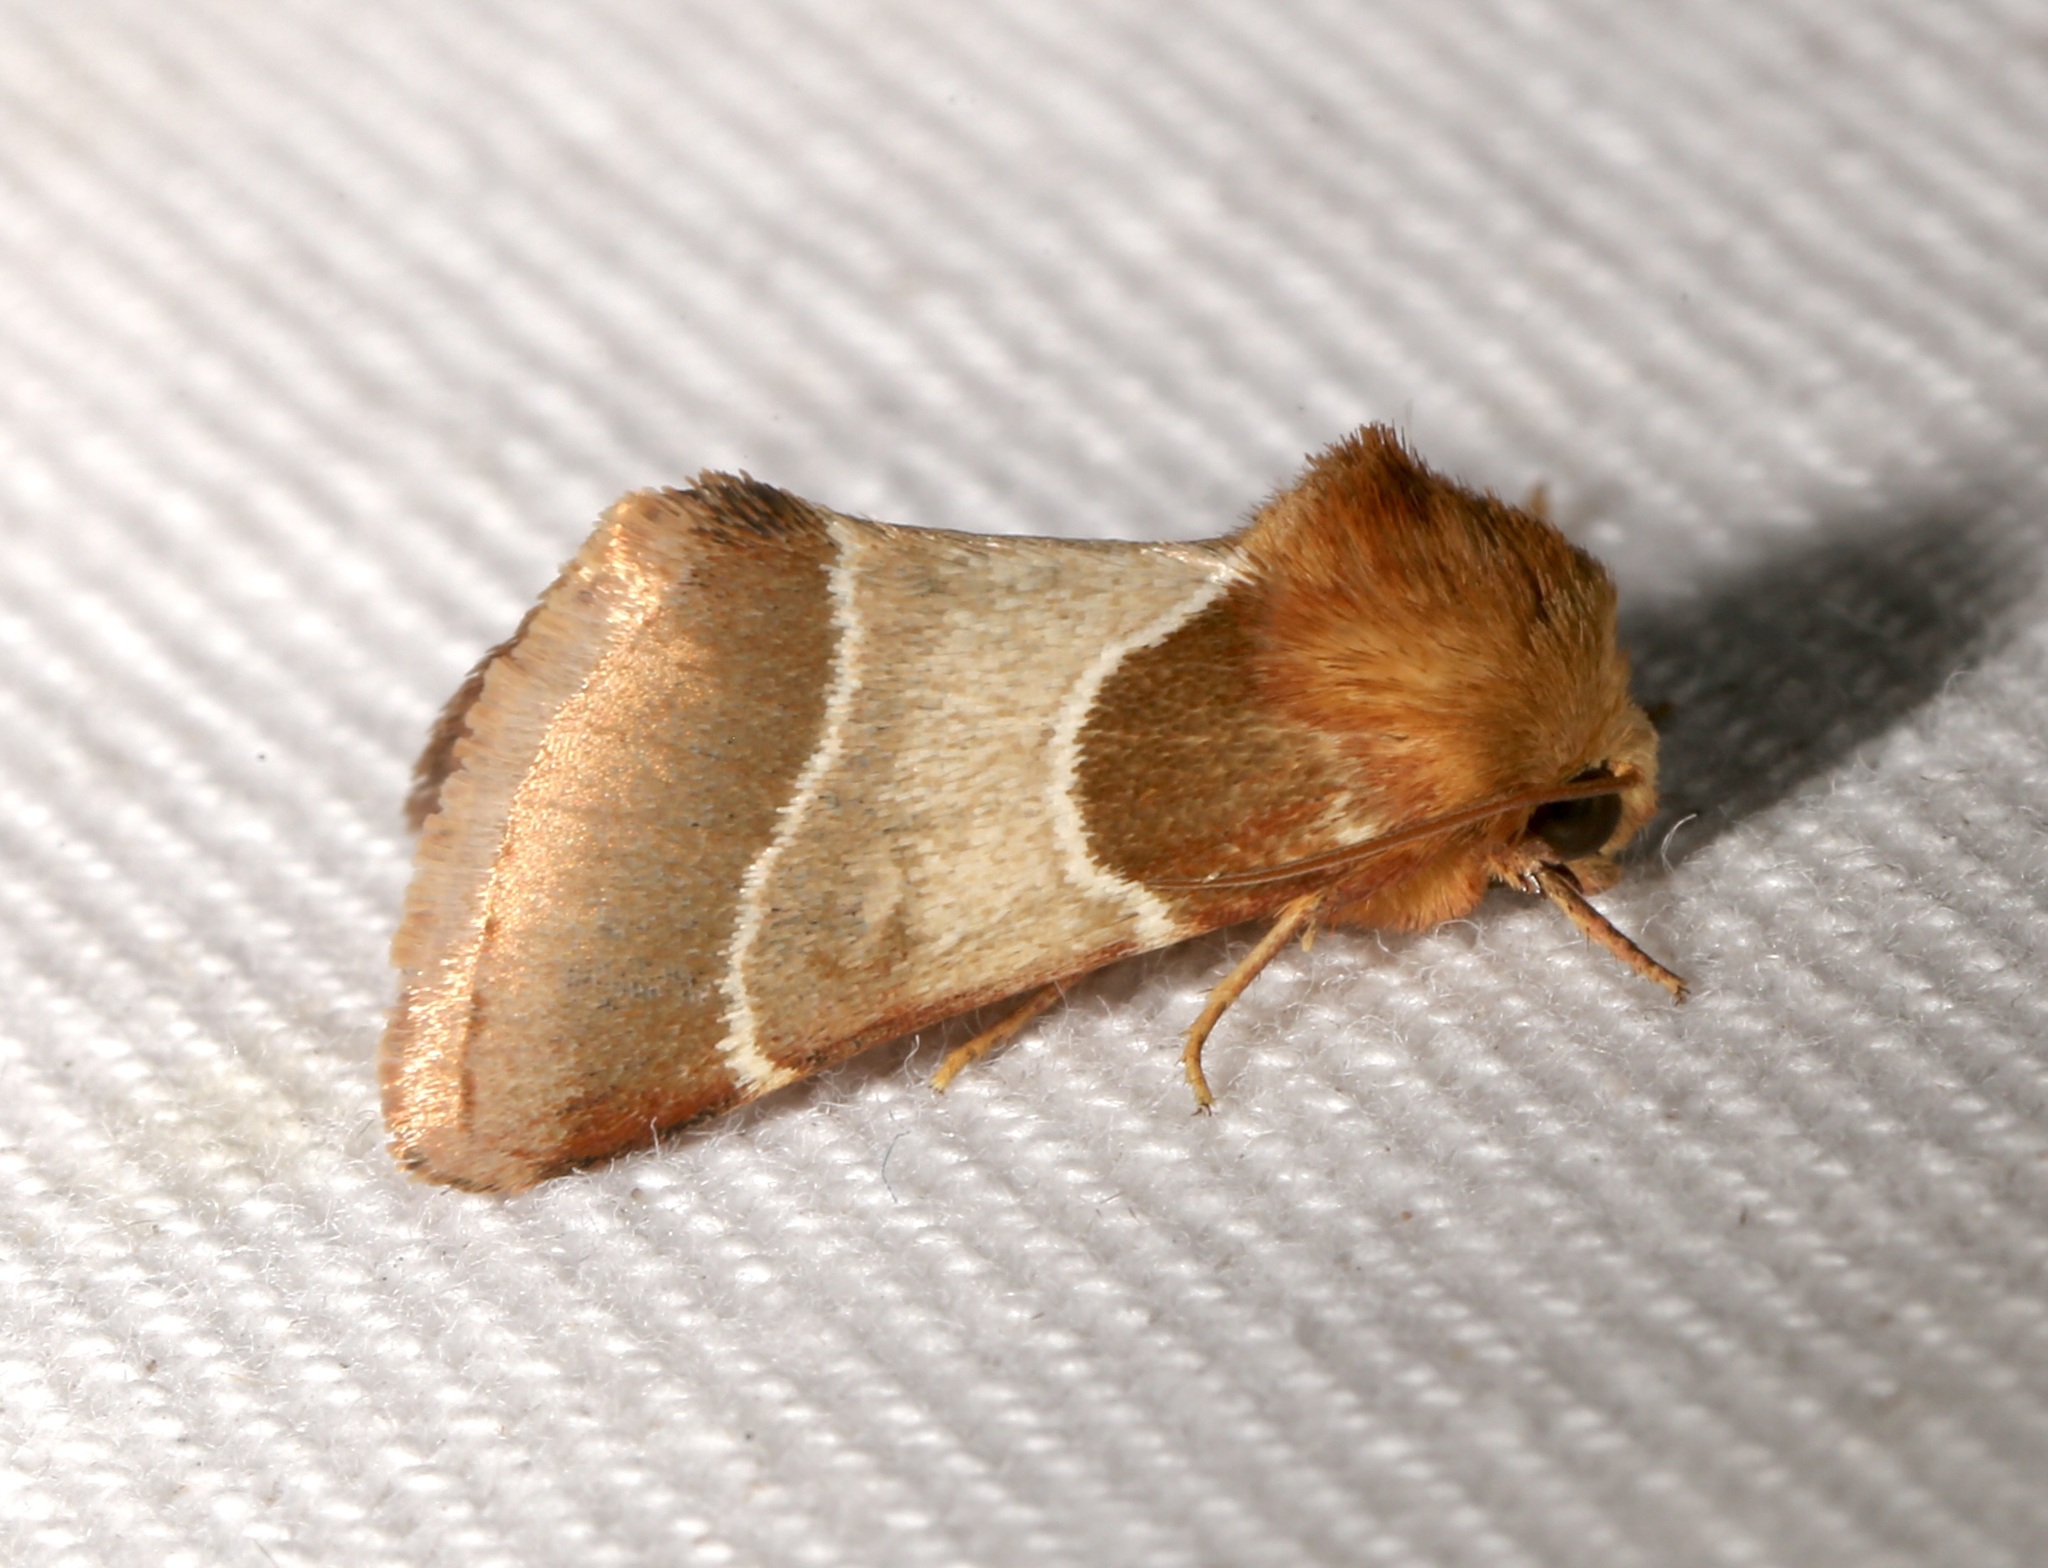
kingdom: Animalia
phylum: Arthropoda
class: Insecta
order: Lepidoptera
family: Noctuidae
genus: Schinia
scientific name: Schinia arcigera
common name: Arcigera flower moth
